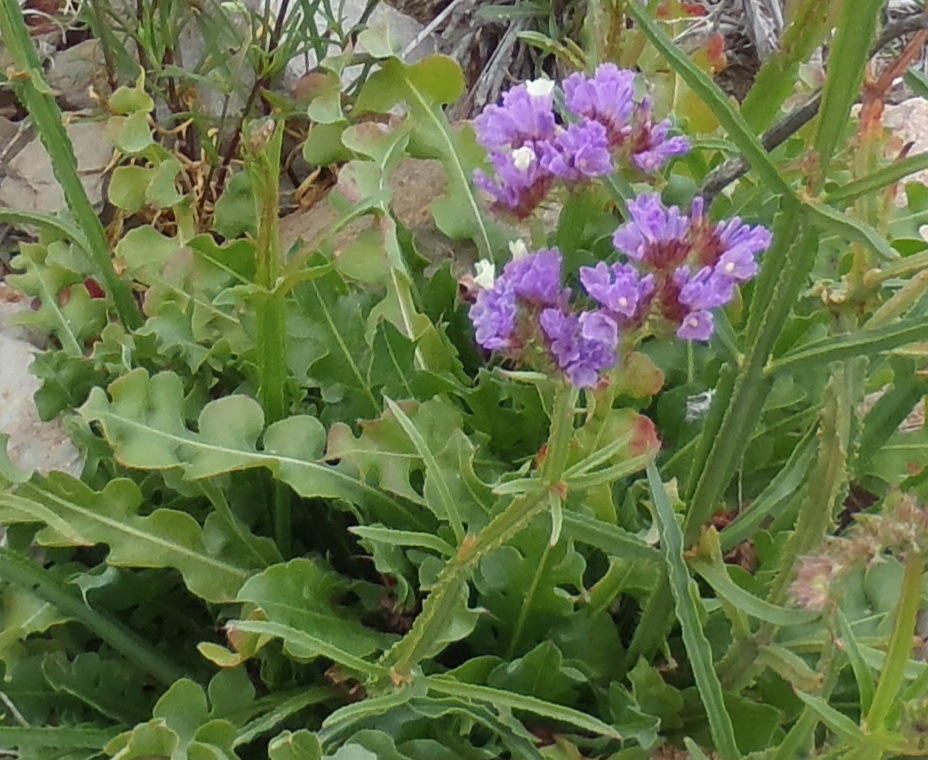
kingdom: Plantae
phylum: Tracheophyta
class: Magnoliopsida
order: Caryophyllales
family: Plumbaginaceae
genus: Limonium
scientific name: Limonium sinuatum
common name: Statice
